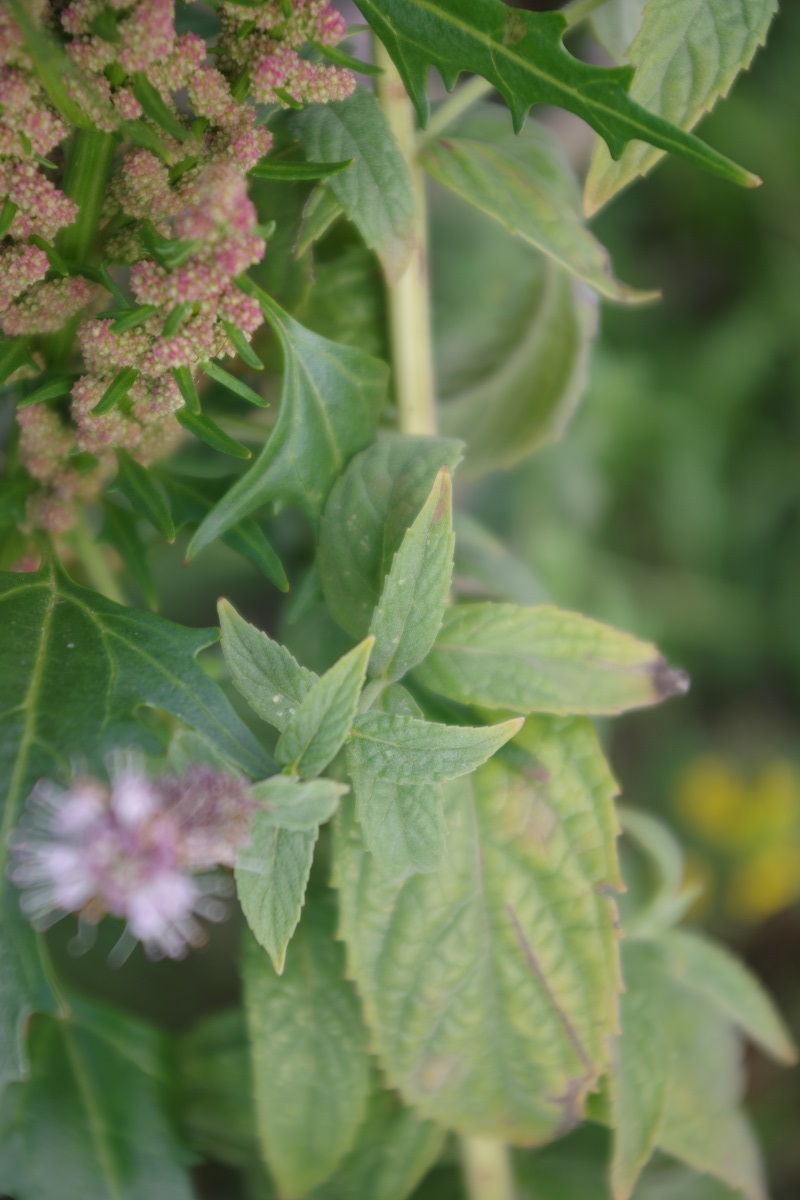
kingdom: Plantae
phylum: Tracheophyta
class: Magnoliopsida
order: Lamiales
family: Lamiaceae
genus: Mentha
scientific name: Mentha longifolia
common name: Horse mint
